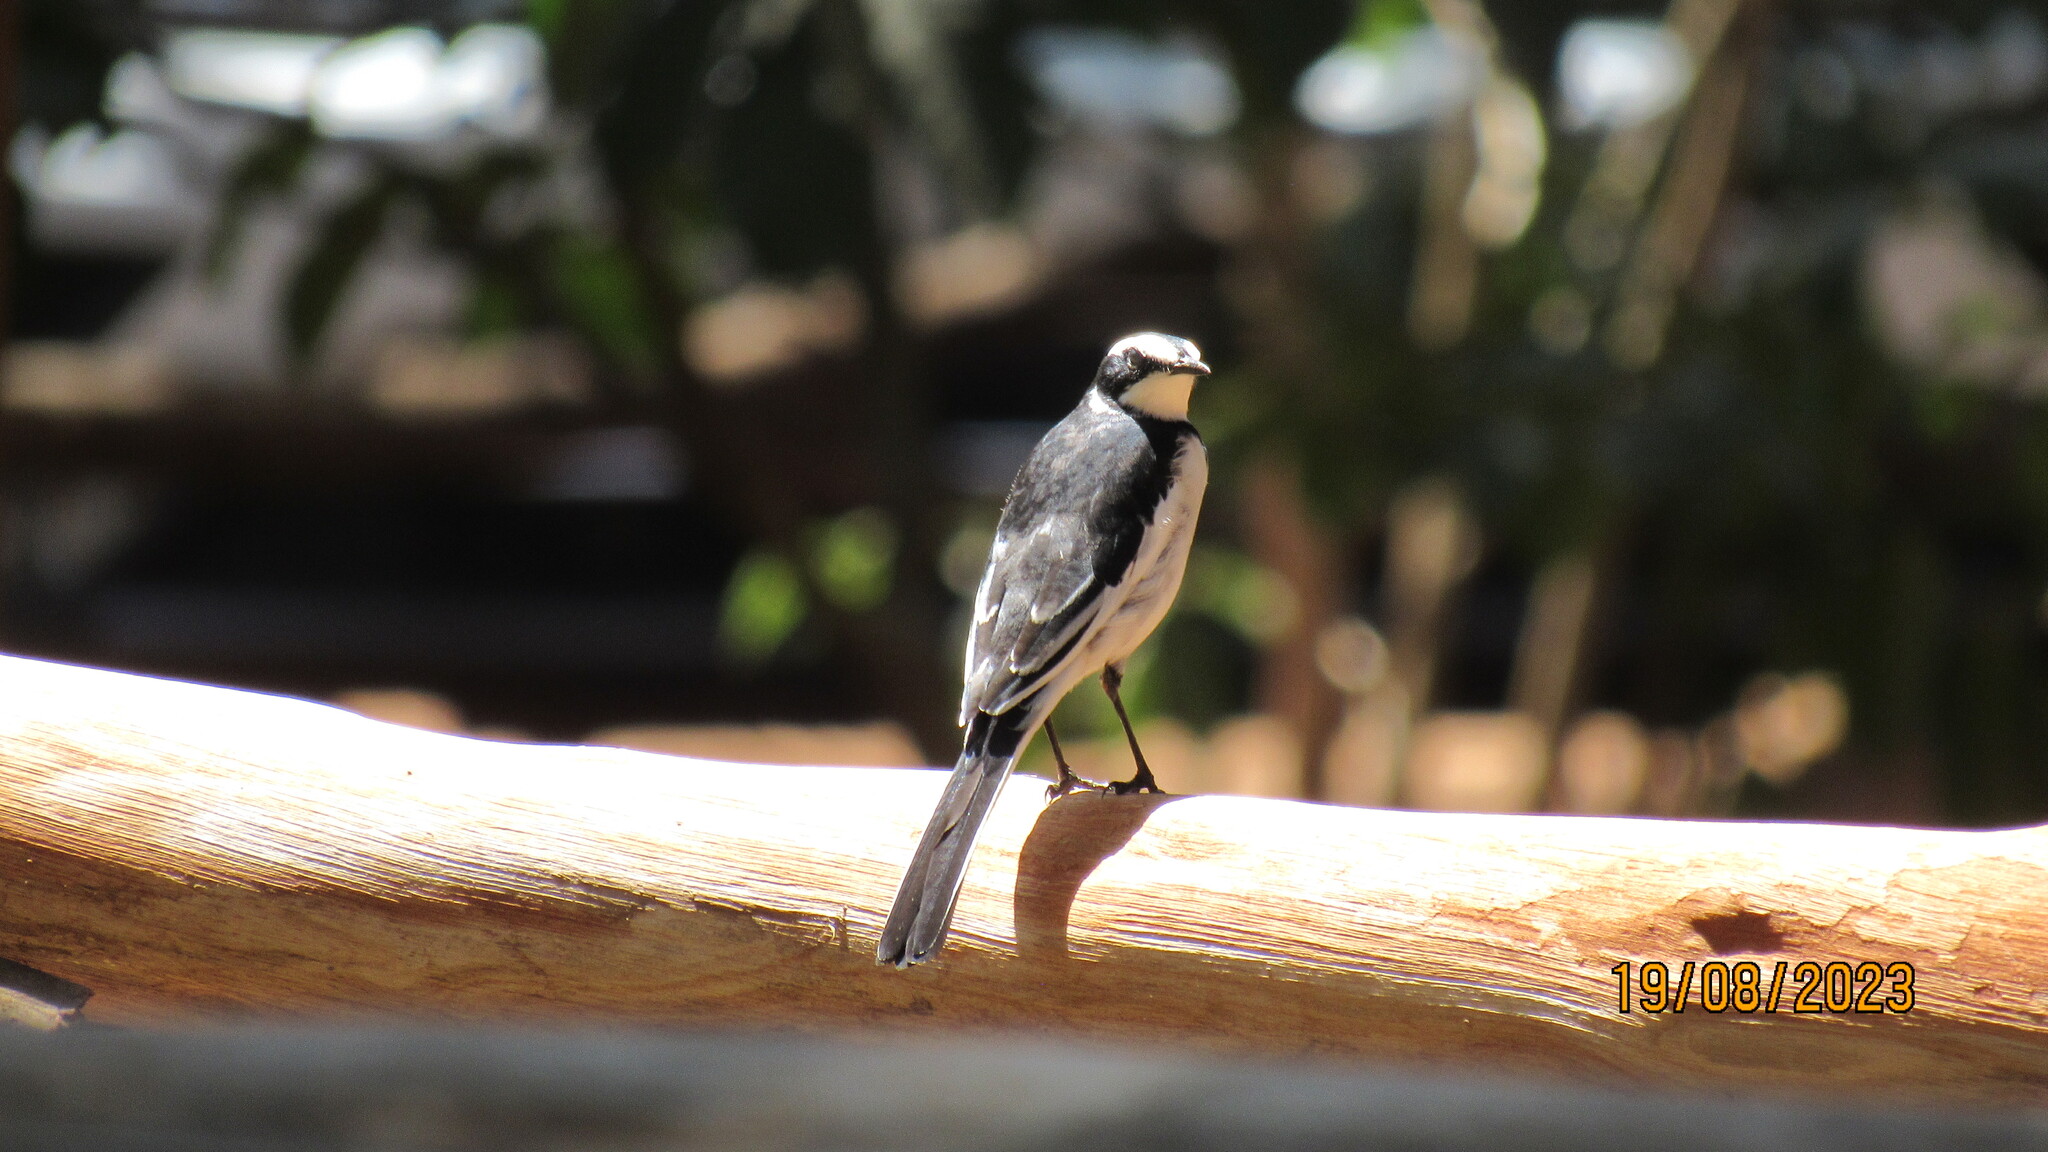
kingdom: Animalia
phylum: Chordata
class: Aves
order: Passeriformes
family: Motacillidae
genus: Motacilla
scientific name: Motacilla aguimp
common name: African pied wagtail
